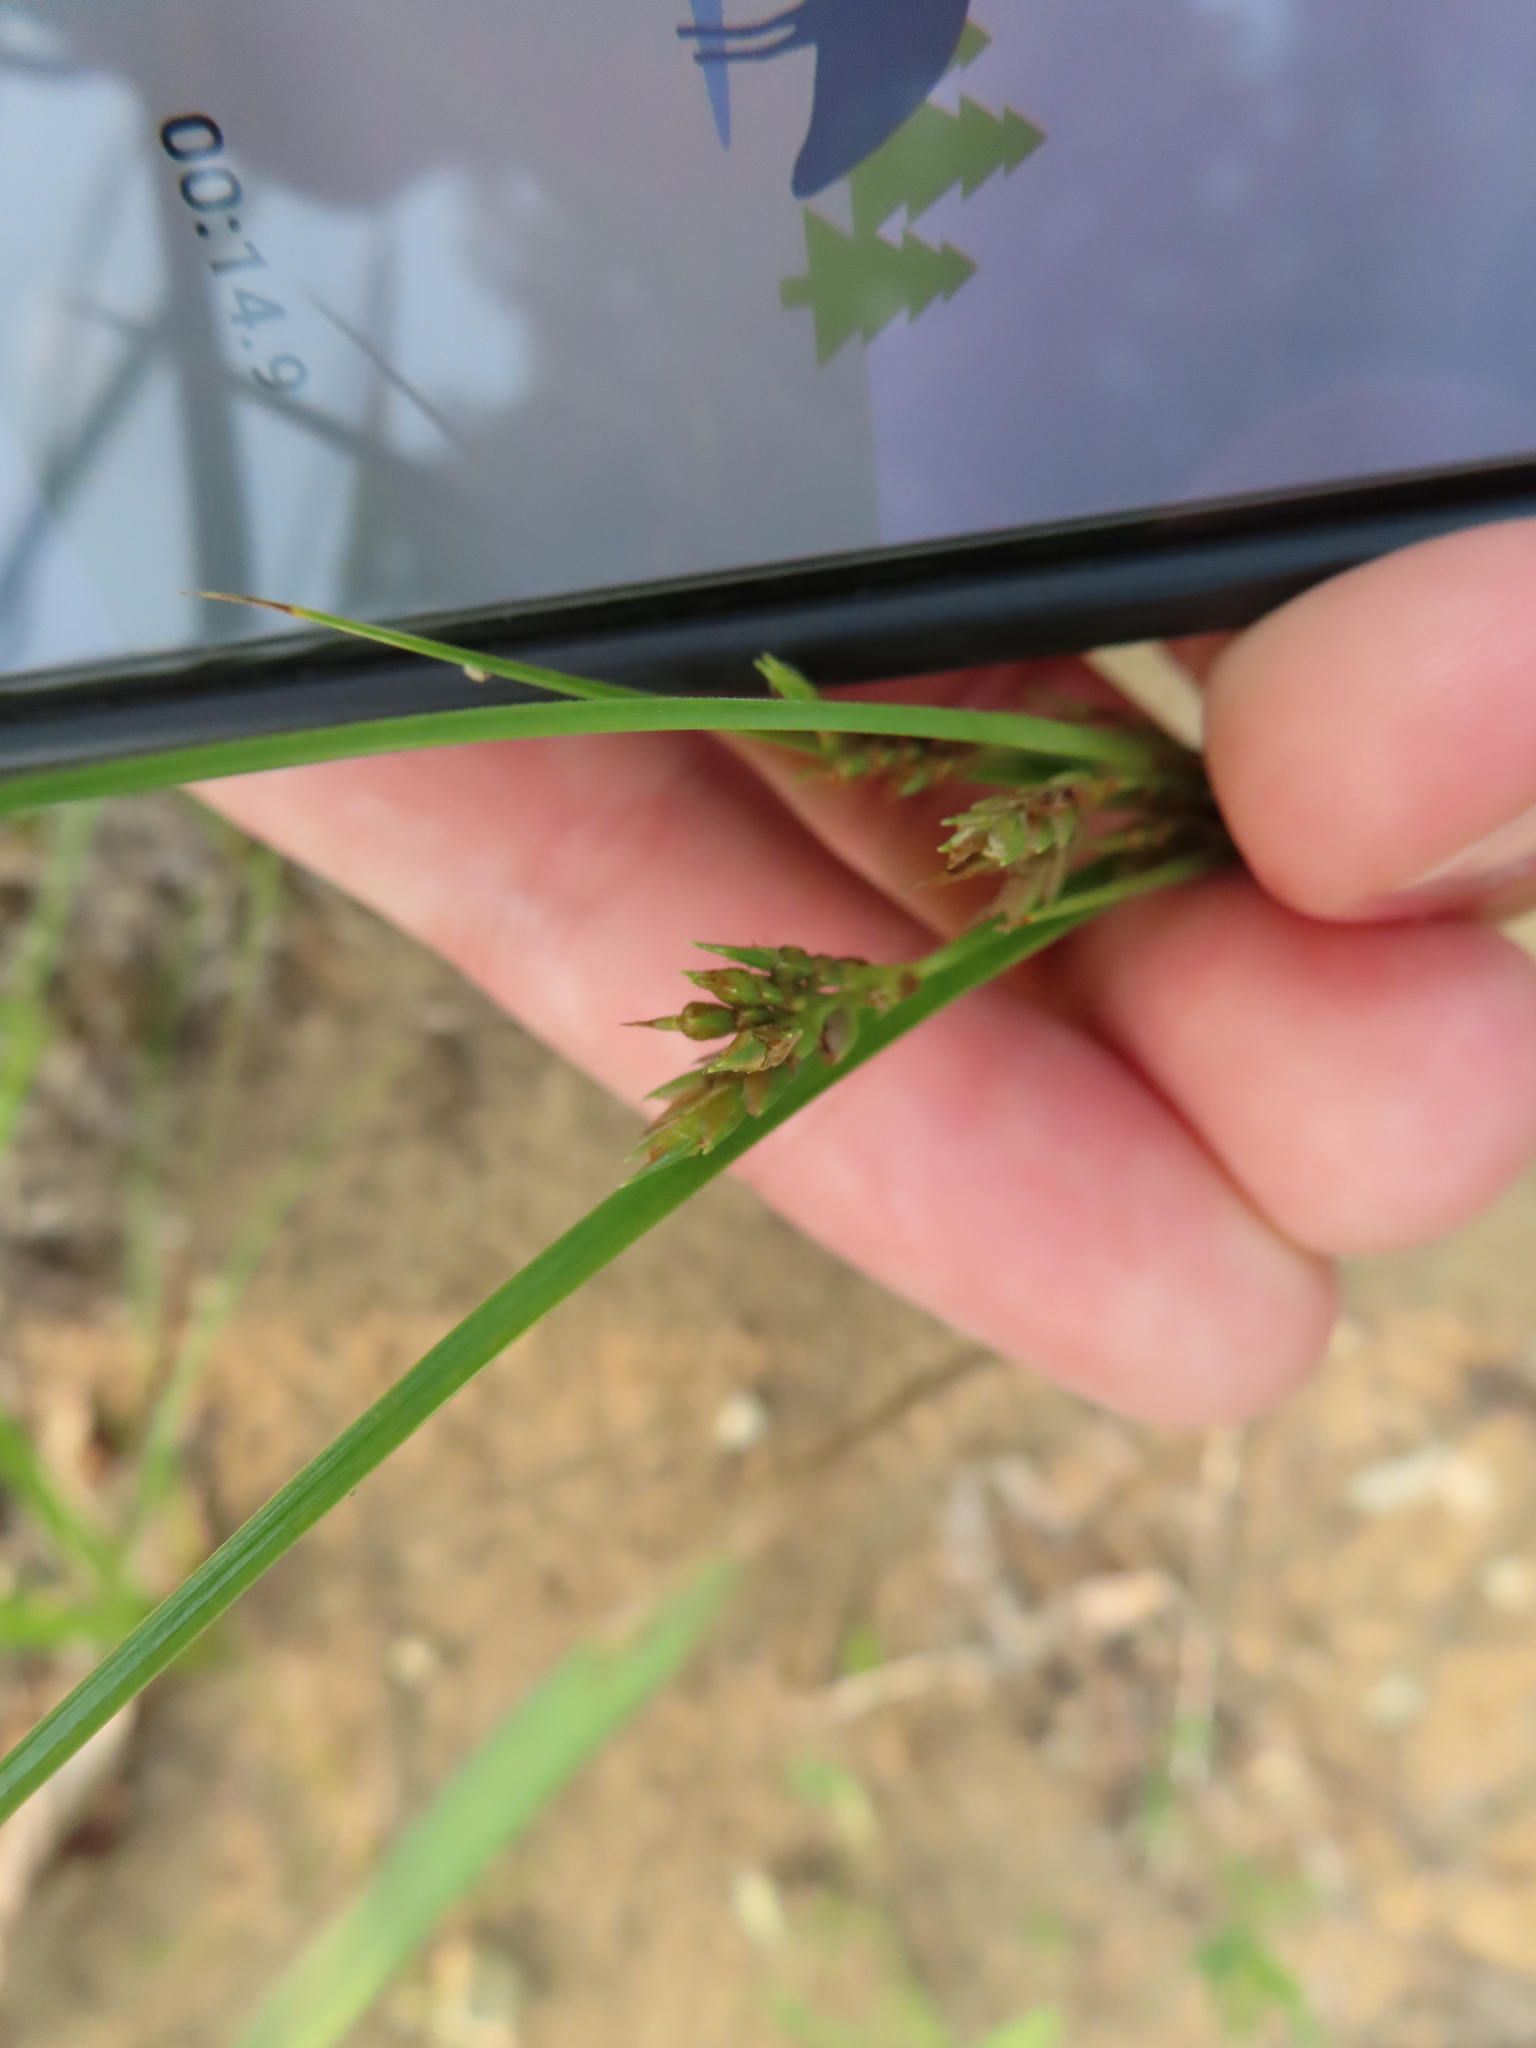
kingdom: Plantae
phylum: Tracheophyta
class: Liliopsida
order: Poales
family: Cyperaceae
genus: Cyperus
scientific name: Cyperus schweinitzii
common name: Schweinitz's cyperus
